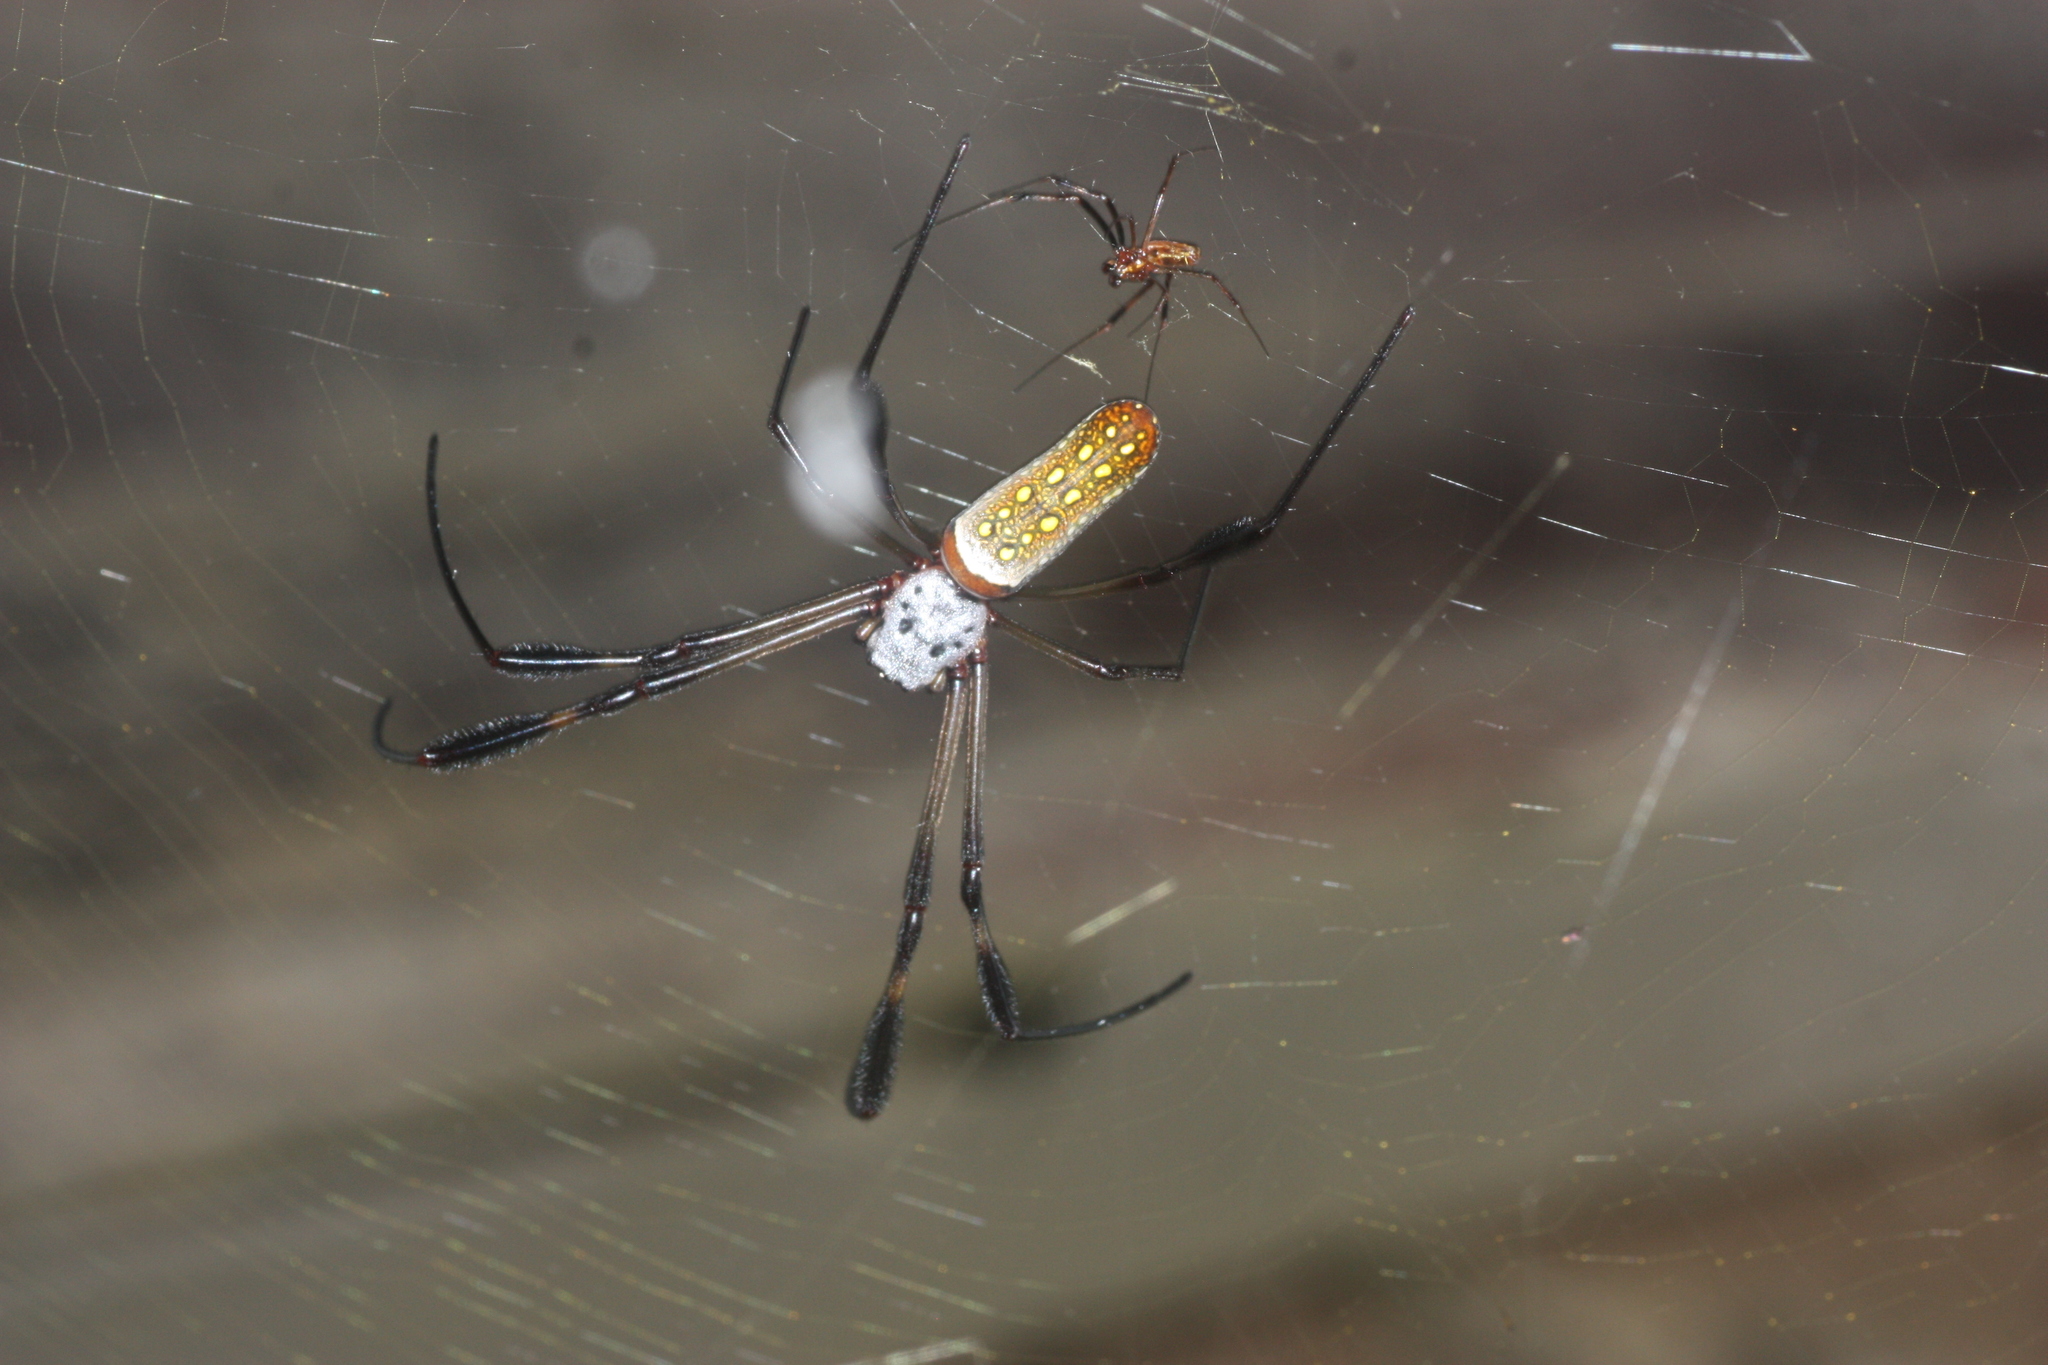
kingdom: Animalia
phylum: Arthropoda
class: Arachnida
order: Araneae
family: Araneidae
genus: Trichonephila
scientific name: Trichonephila clavipes
